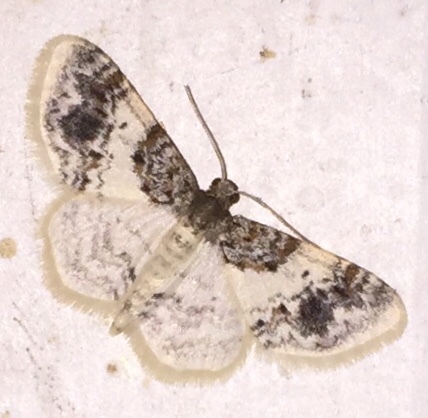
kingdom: Animalia
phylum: Arthropoda
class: Insecta
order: Lepidoptera
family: Geometridae
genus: Hydrelia
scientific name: Hydrelia inornata
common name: Unadorned carpet moth
